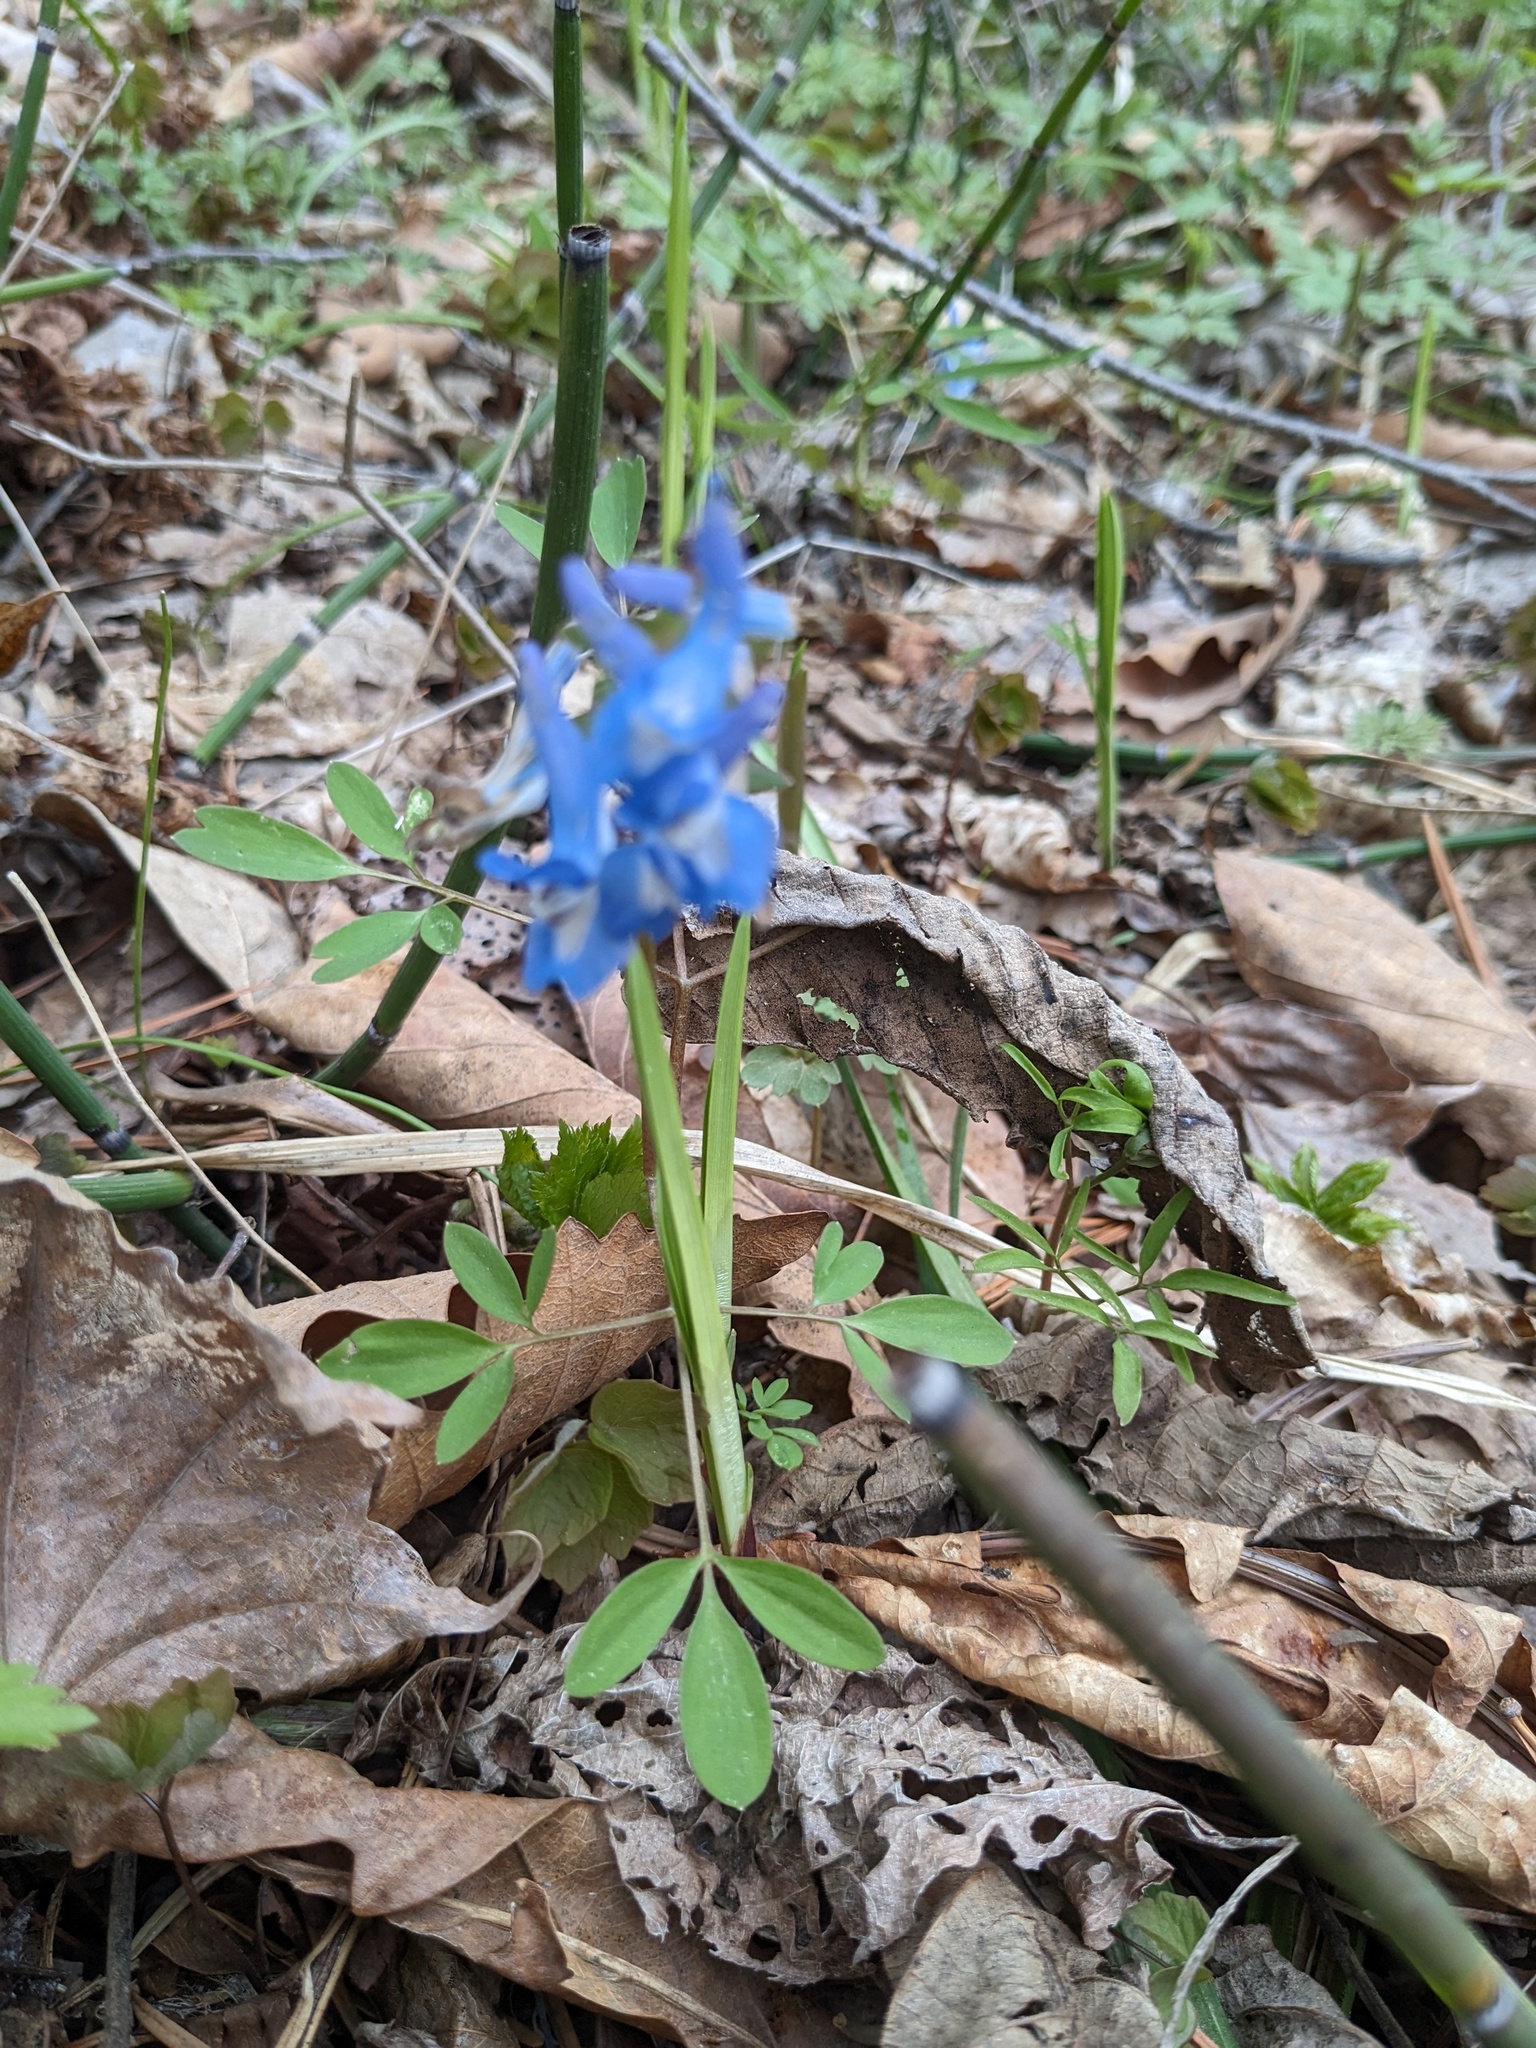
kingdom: Plantae
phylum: Tracheophyta
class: Magnoliopsida
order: Ranunculales
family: Papaveraceae
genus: Corydalis
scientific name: Corydalis ambigua
